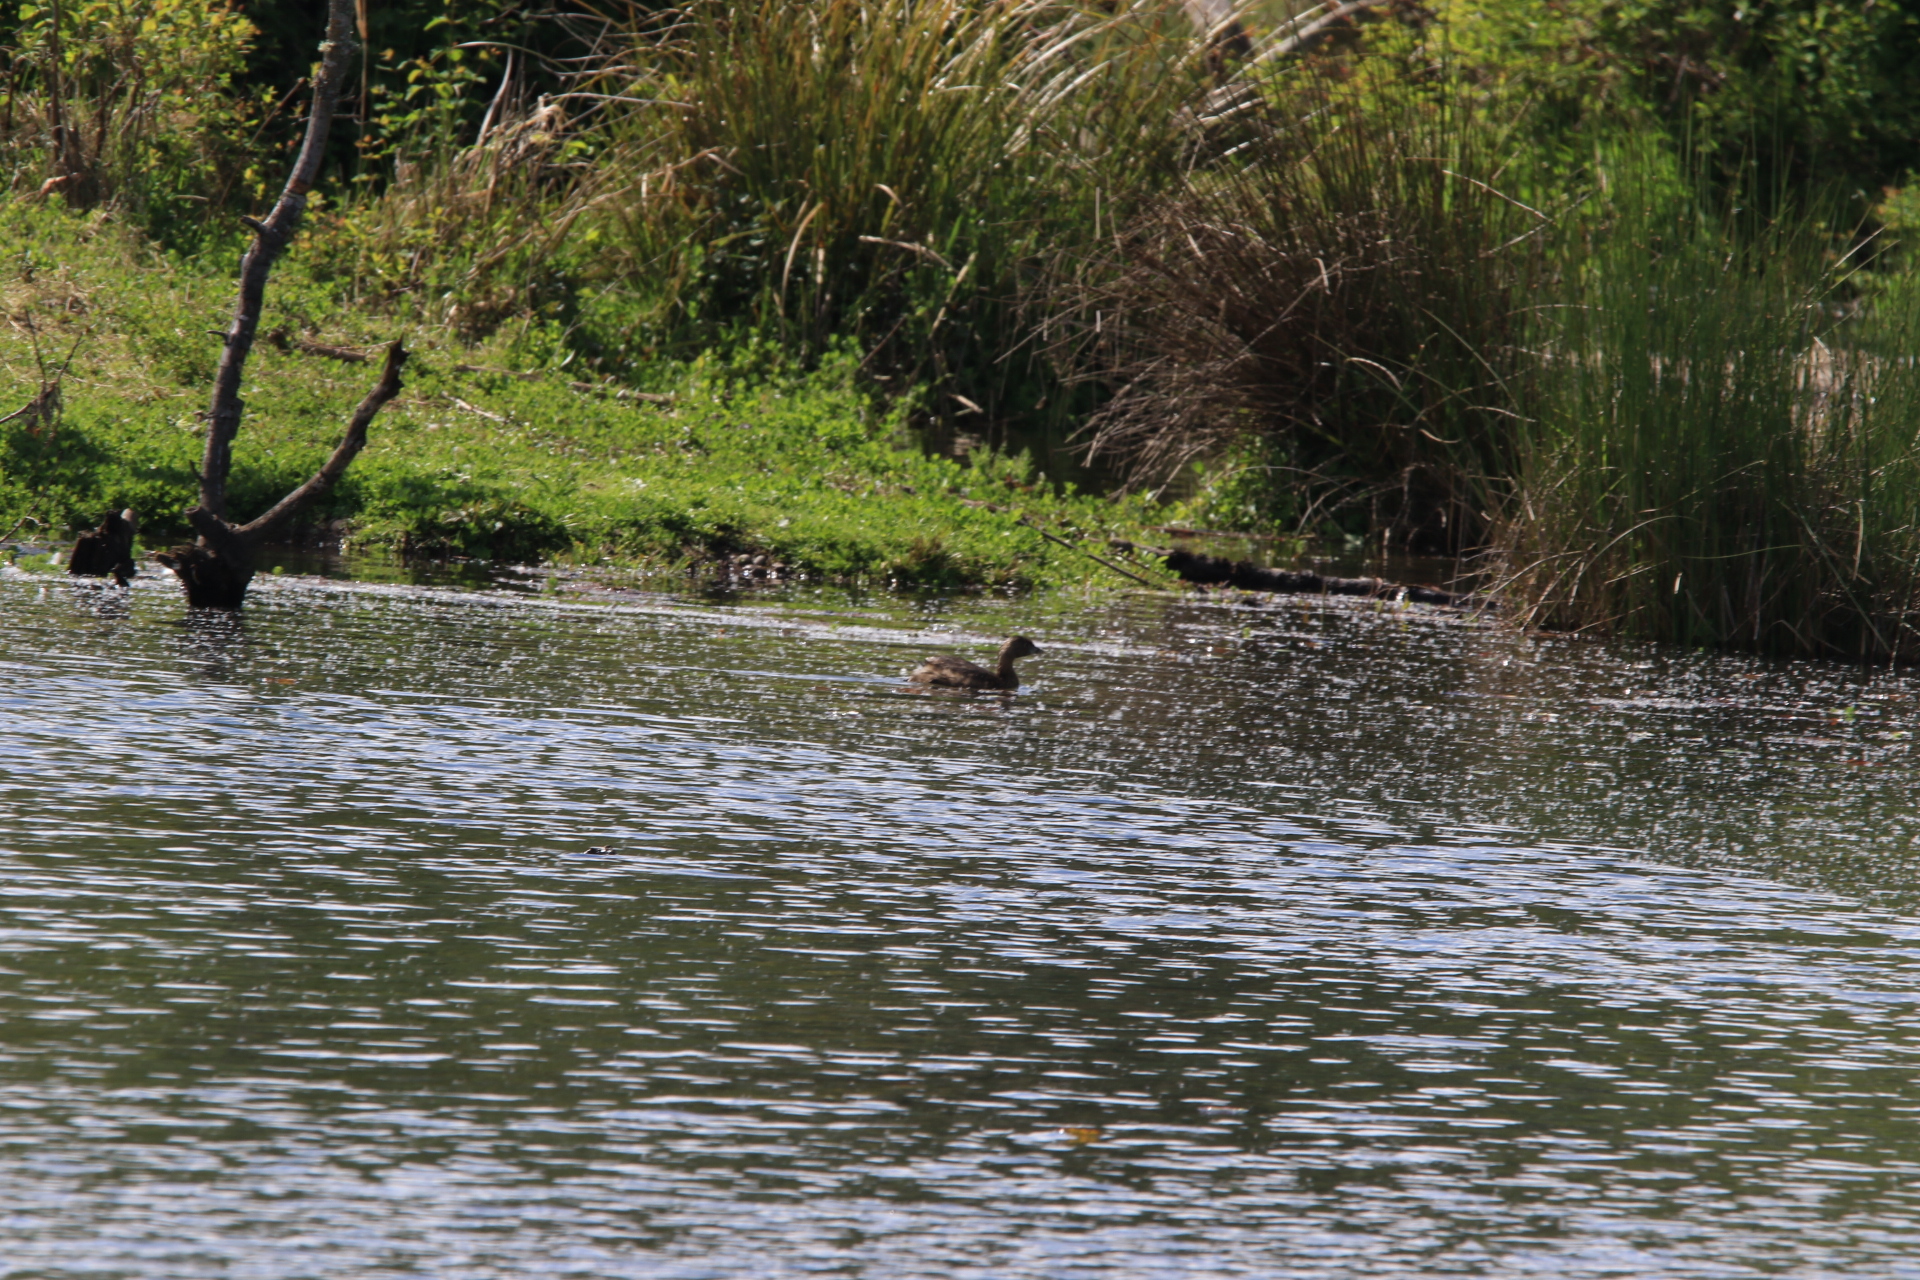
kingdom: Animalia
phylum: Chordata
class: Aves
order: Podicipediformes
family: Podicipedidae
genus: Podilymbus
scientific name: Podilymbus podiceps
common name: Pied-billed grebe
